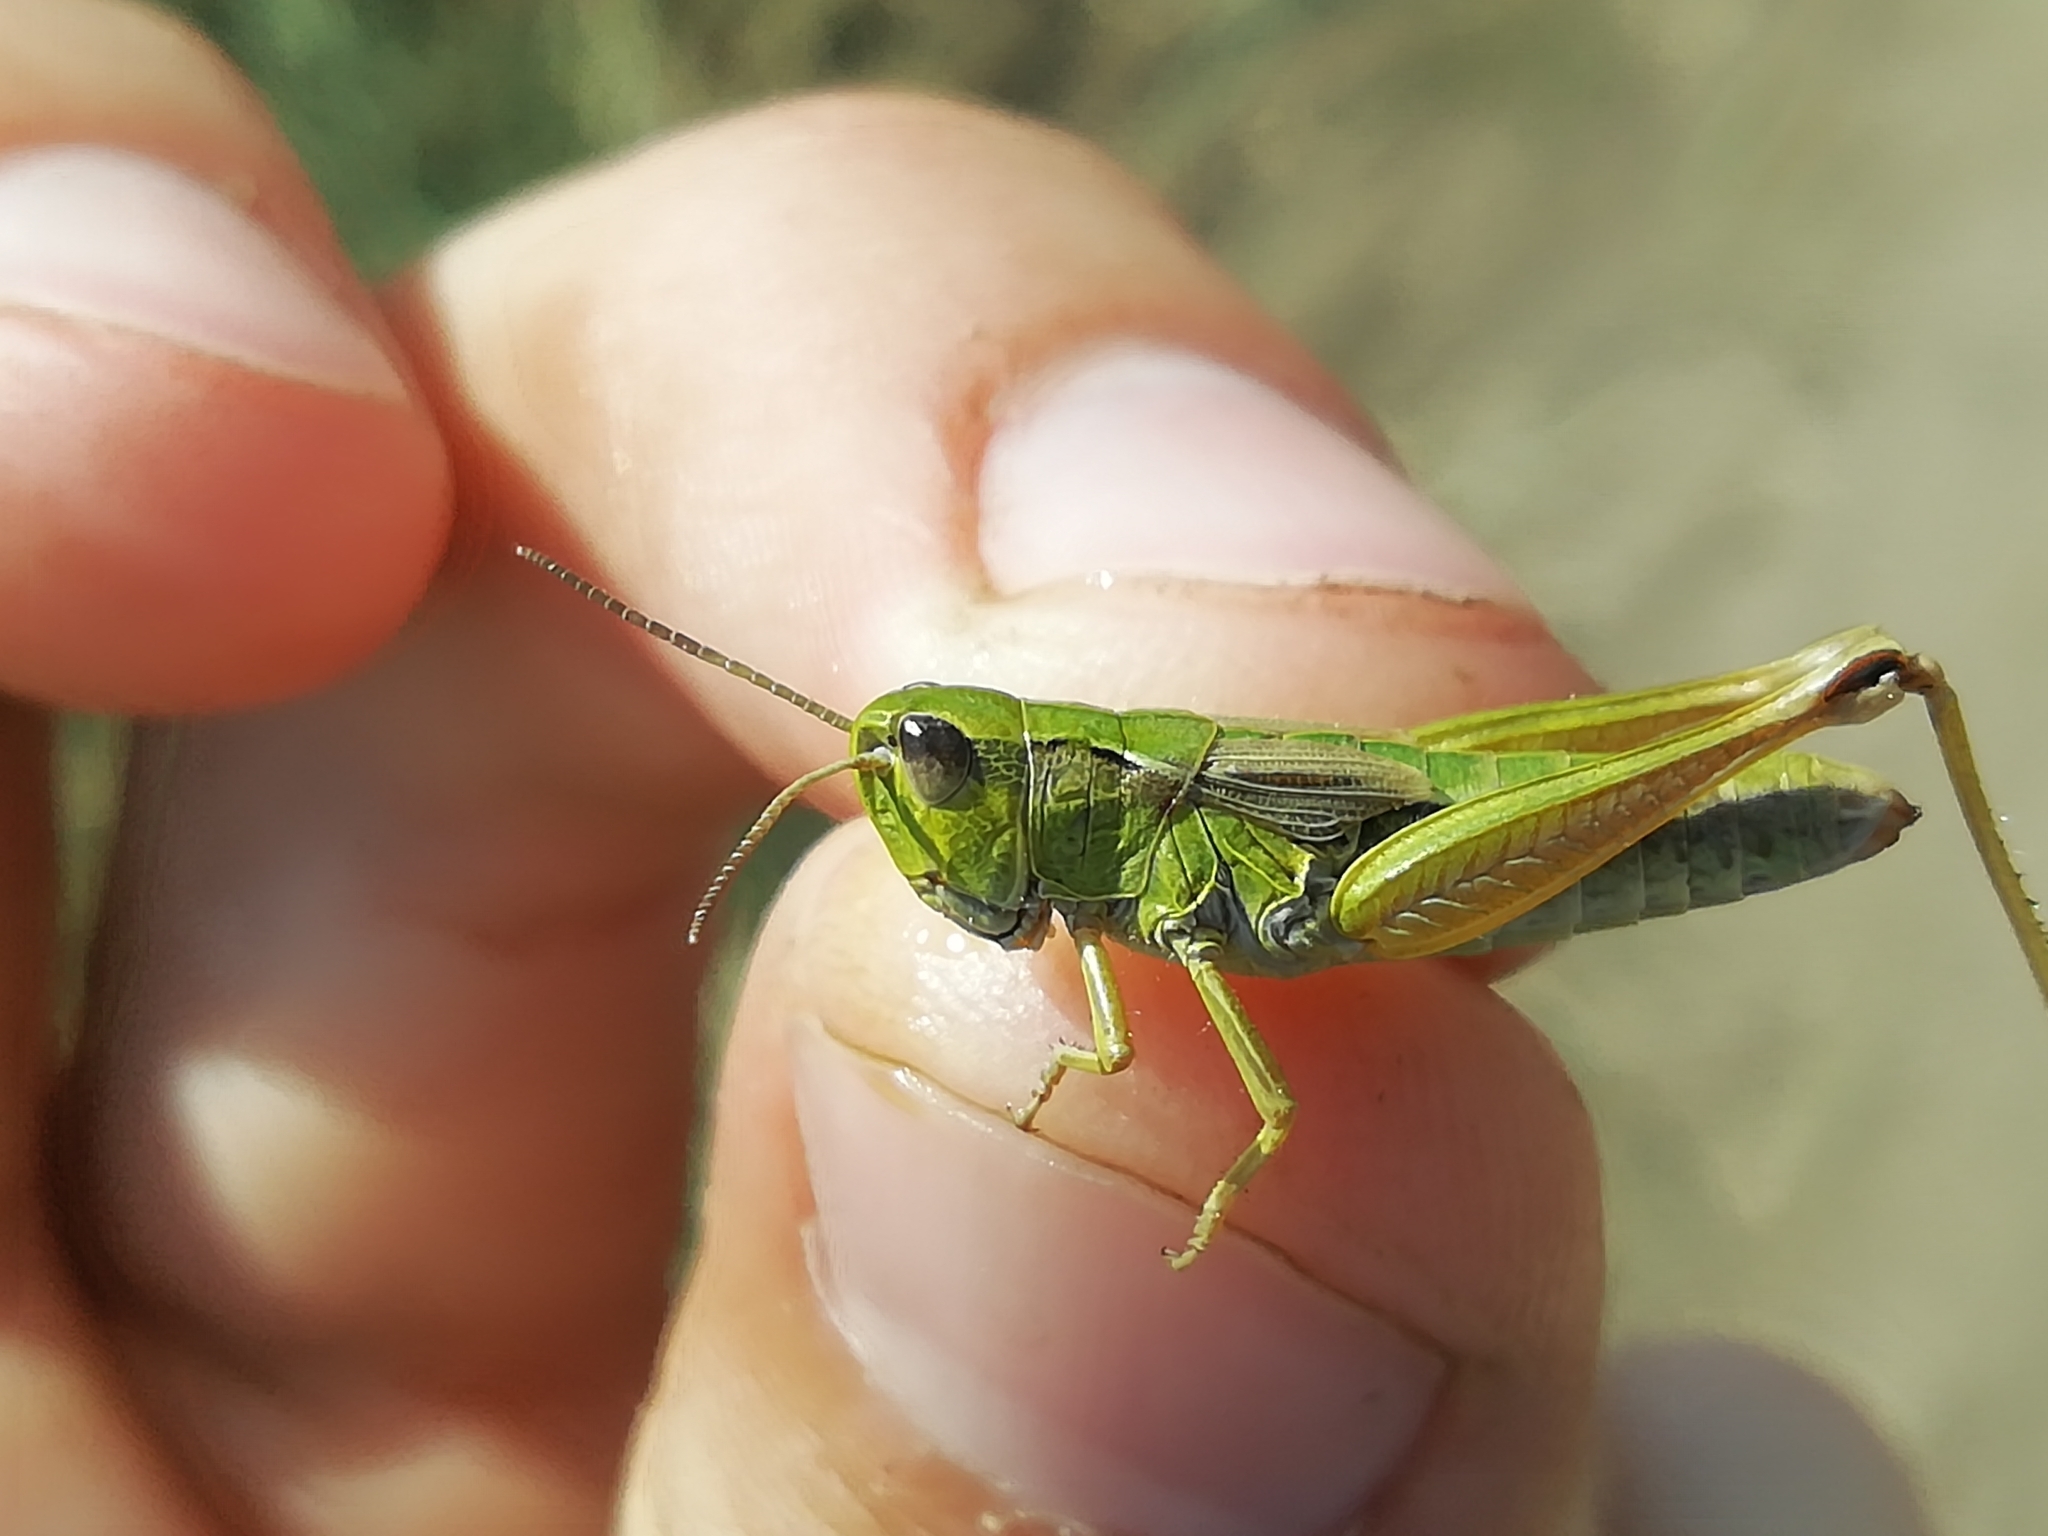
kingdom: Animalia
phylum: Arthropoda
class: Insecta
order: Orthoptera
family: Acrididae
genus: Chorthippus
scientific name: Chorthippus fallax
